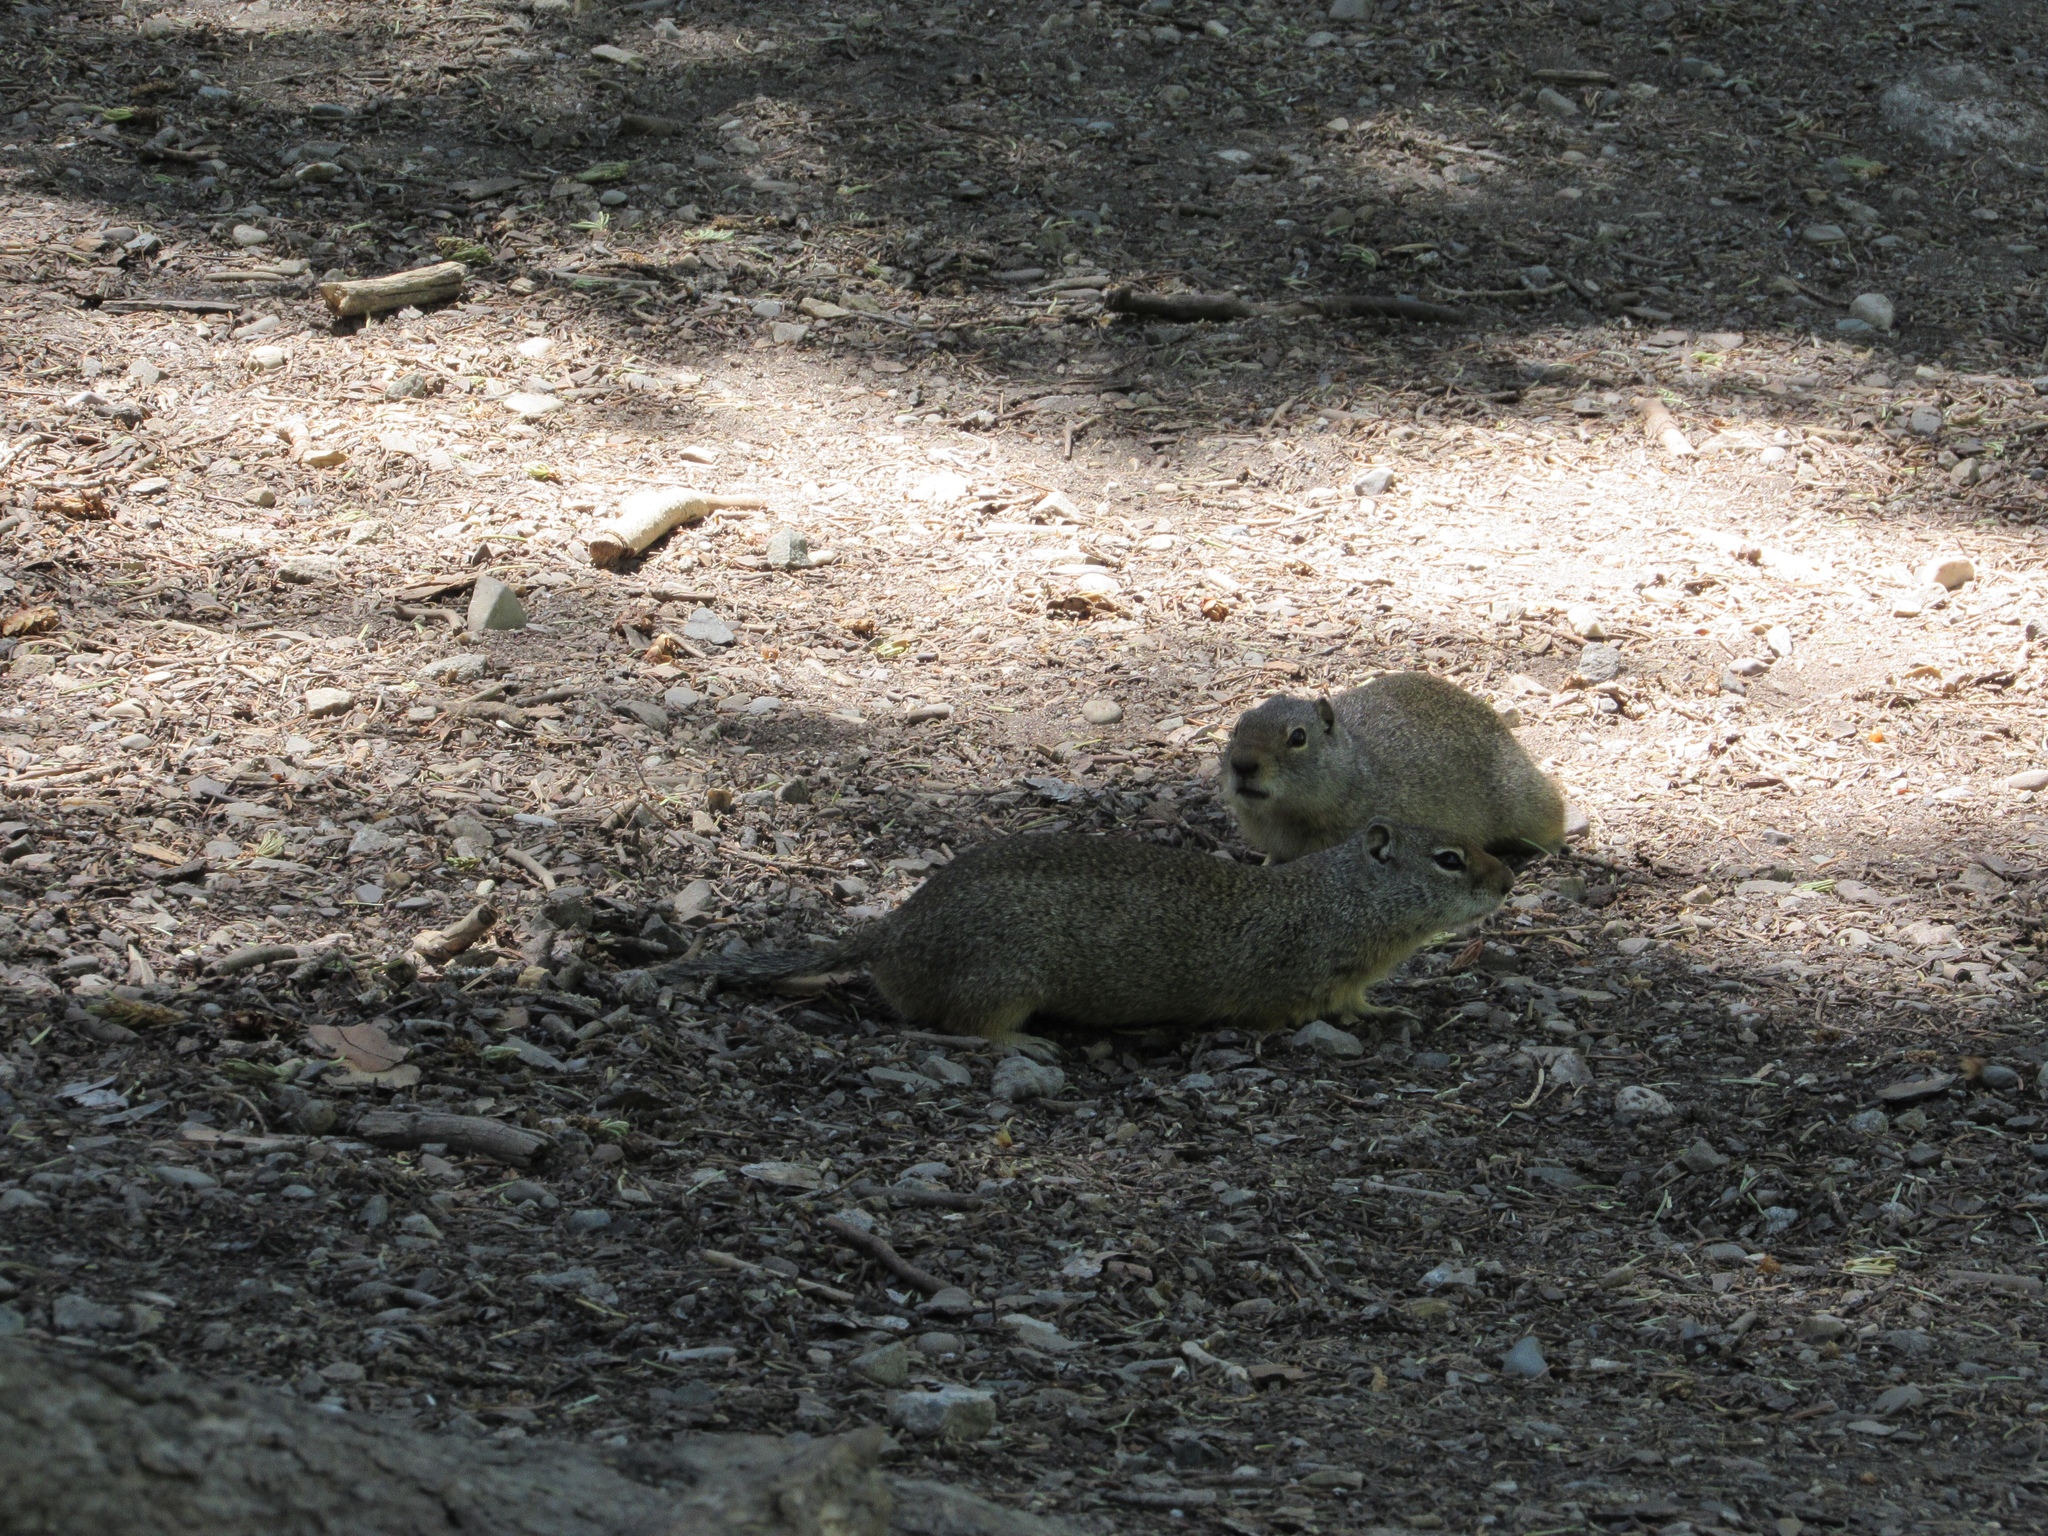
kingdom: Animalia
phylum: Chordata
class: Mammalia
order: Rodentia
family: Sciuridae
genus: Urocitellus
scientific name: Urocitellus armatus
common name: Uinta ground squirrel
